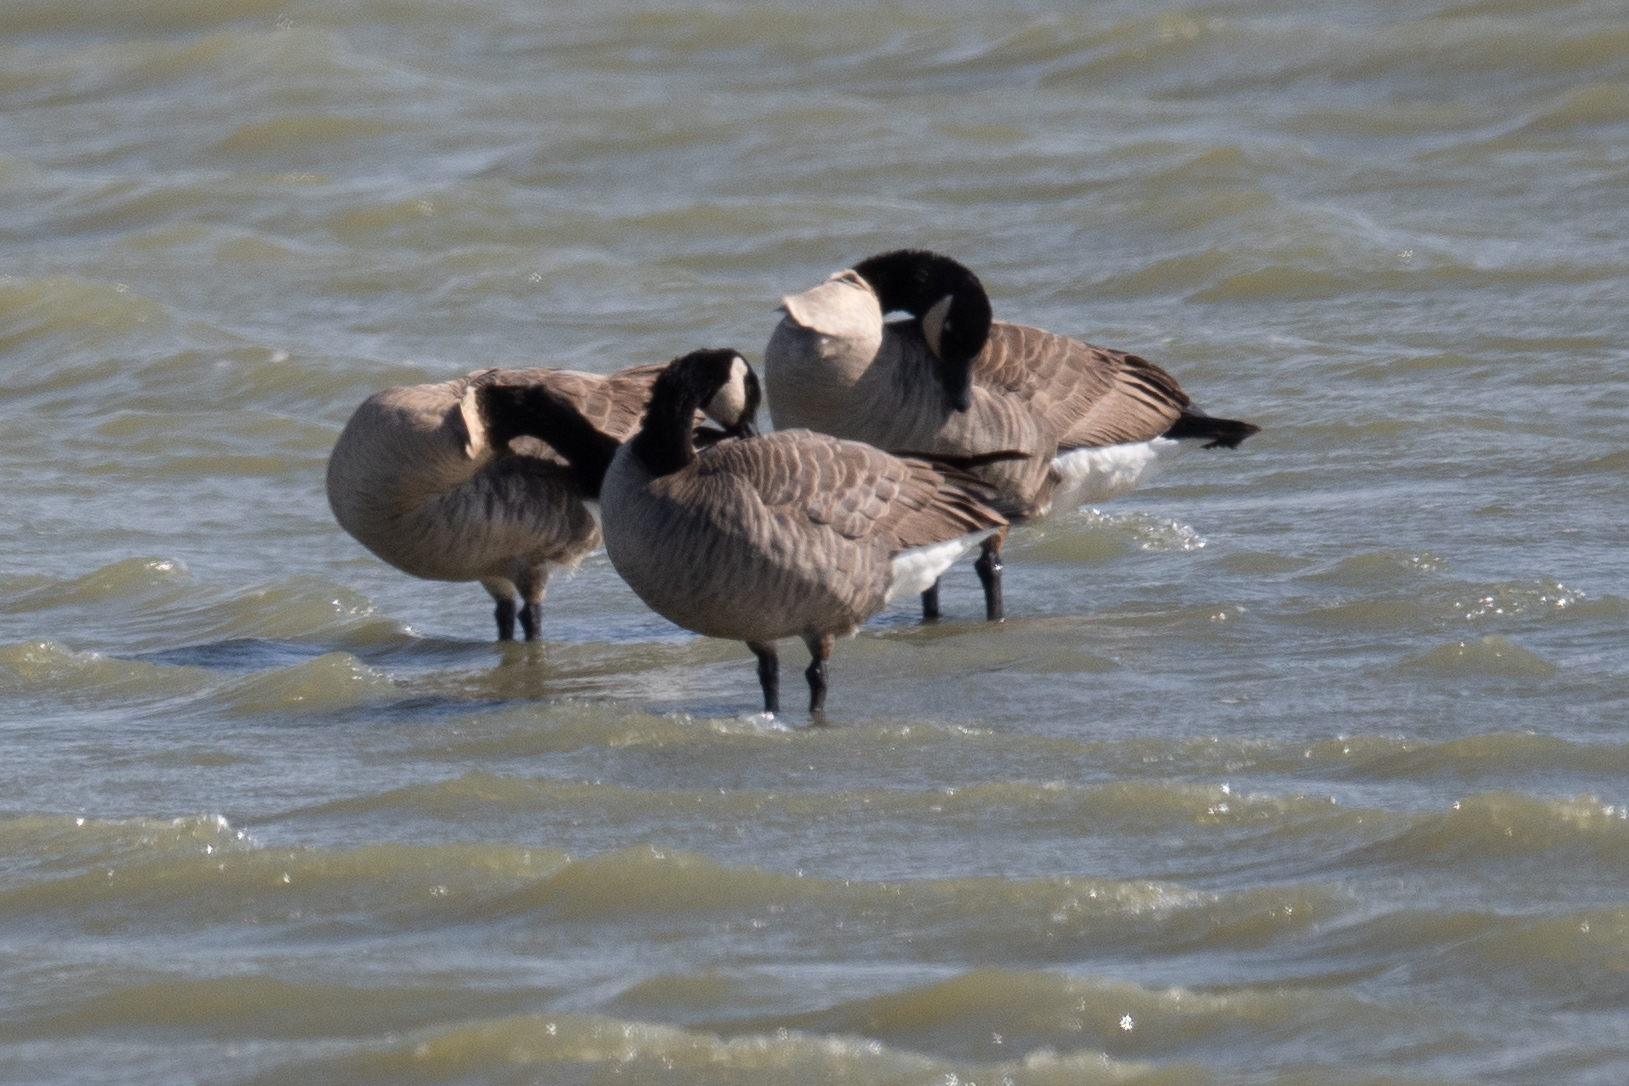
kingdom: Animalia
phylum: Chordata
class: Aves
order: Anseriformes
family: Anatidae
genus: Branta
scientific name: Branta canadensis
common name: Canada goose
